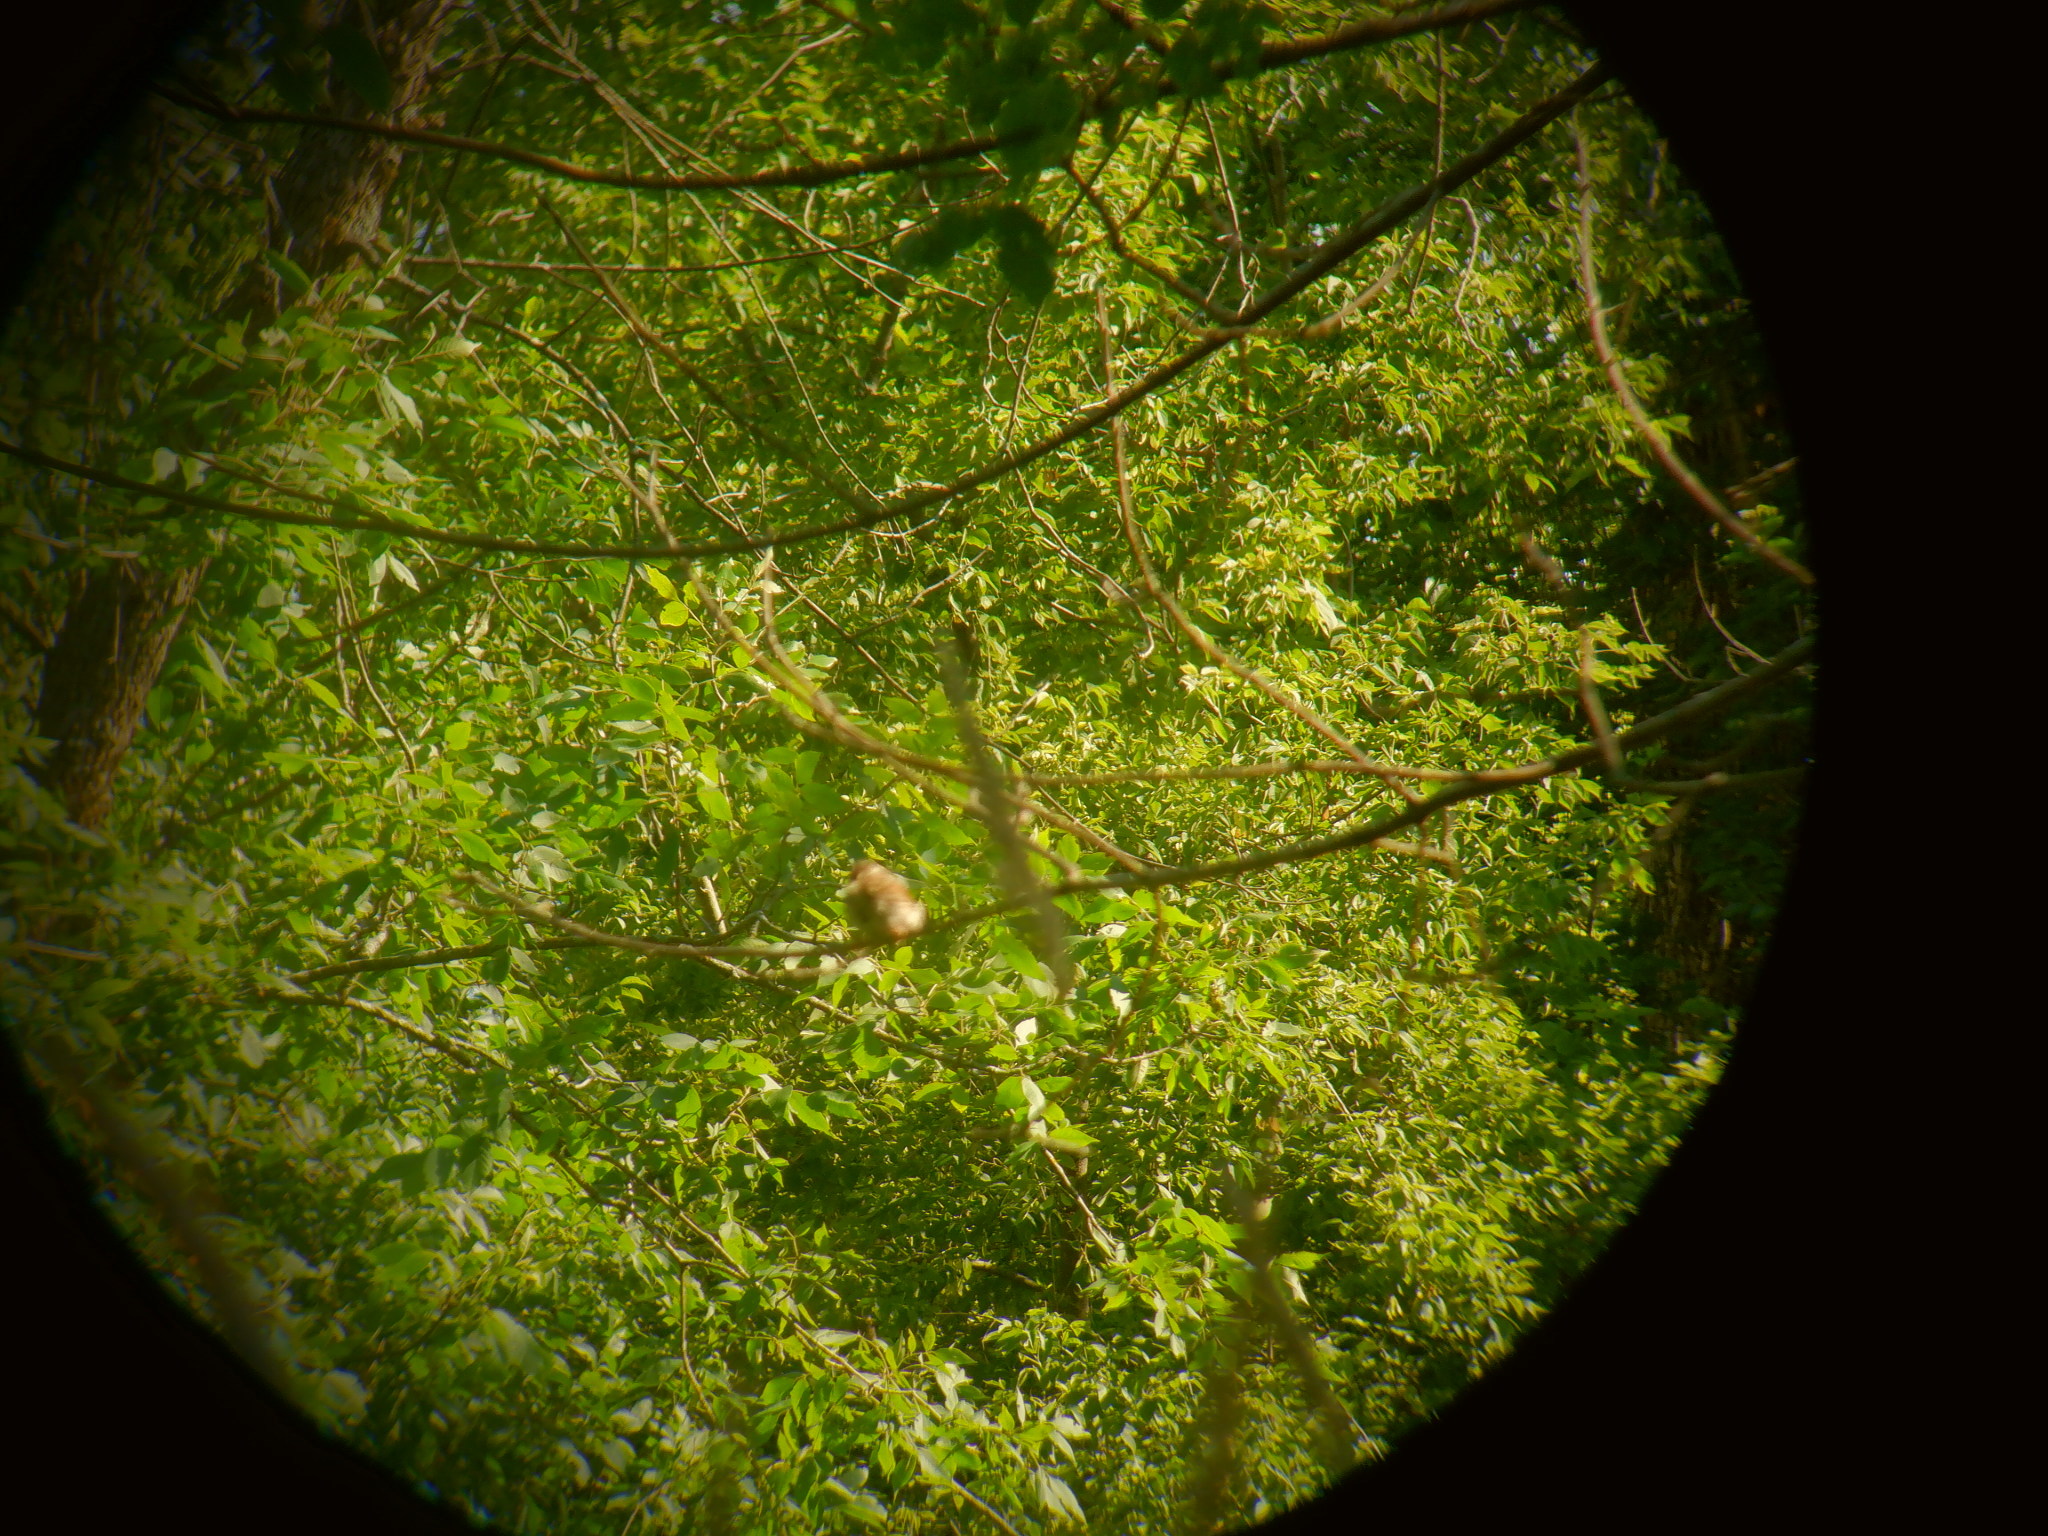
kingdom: Animalia
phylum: Chordata
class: Aves
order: Passeriformes
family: Passerellidae
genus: Melospiza
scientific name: Melospiza melodia
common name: Song sparrow
